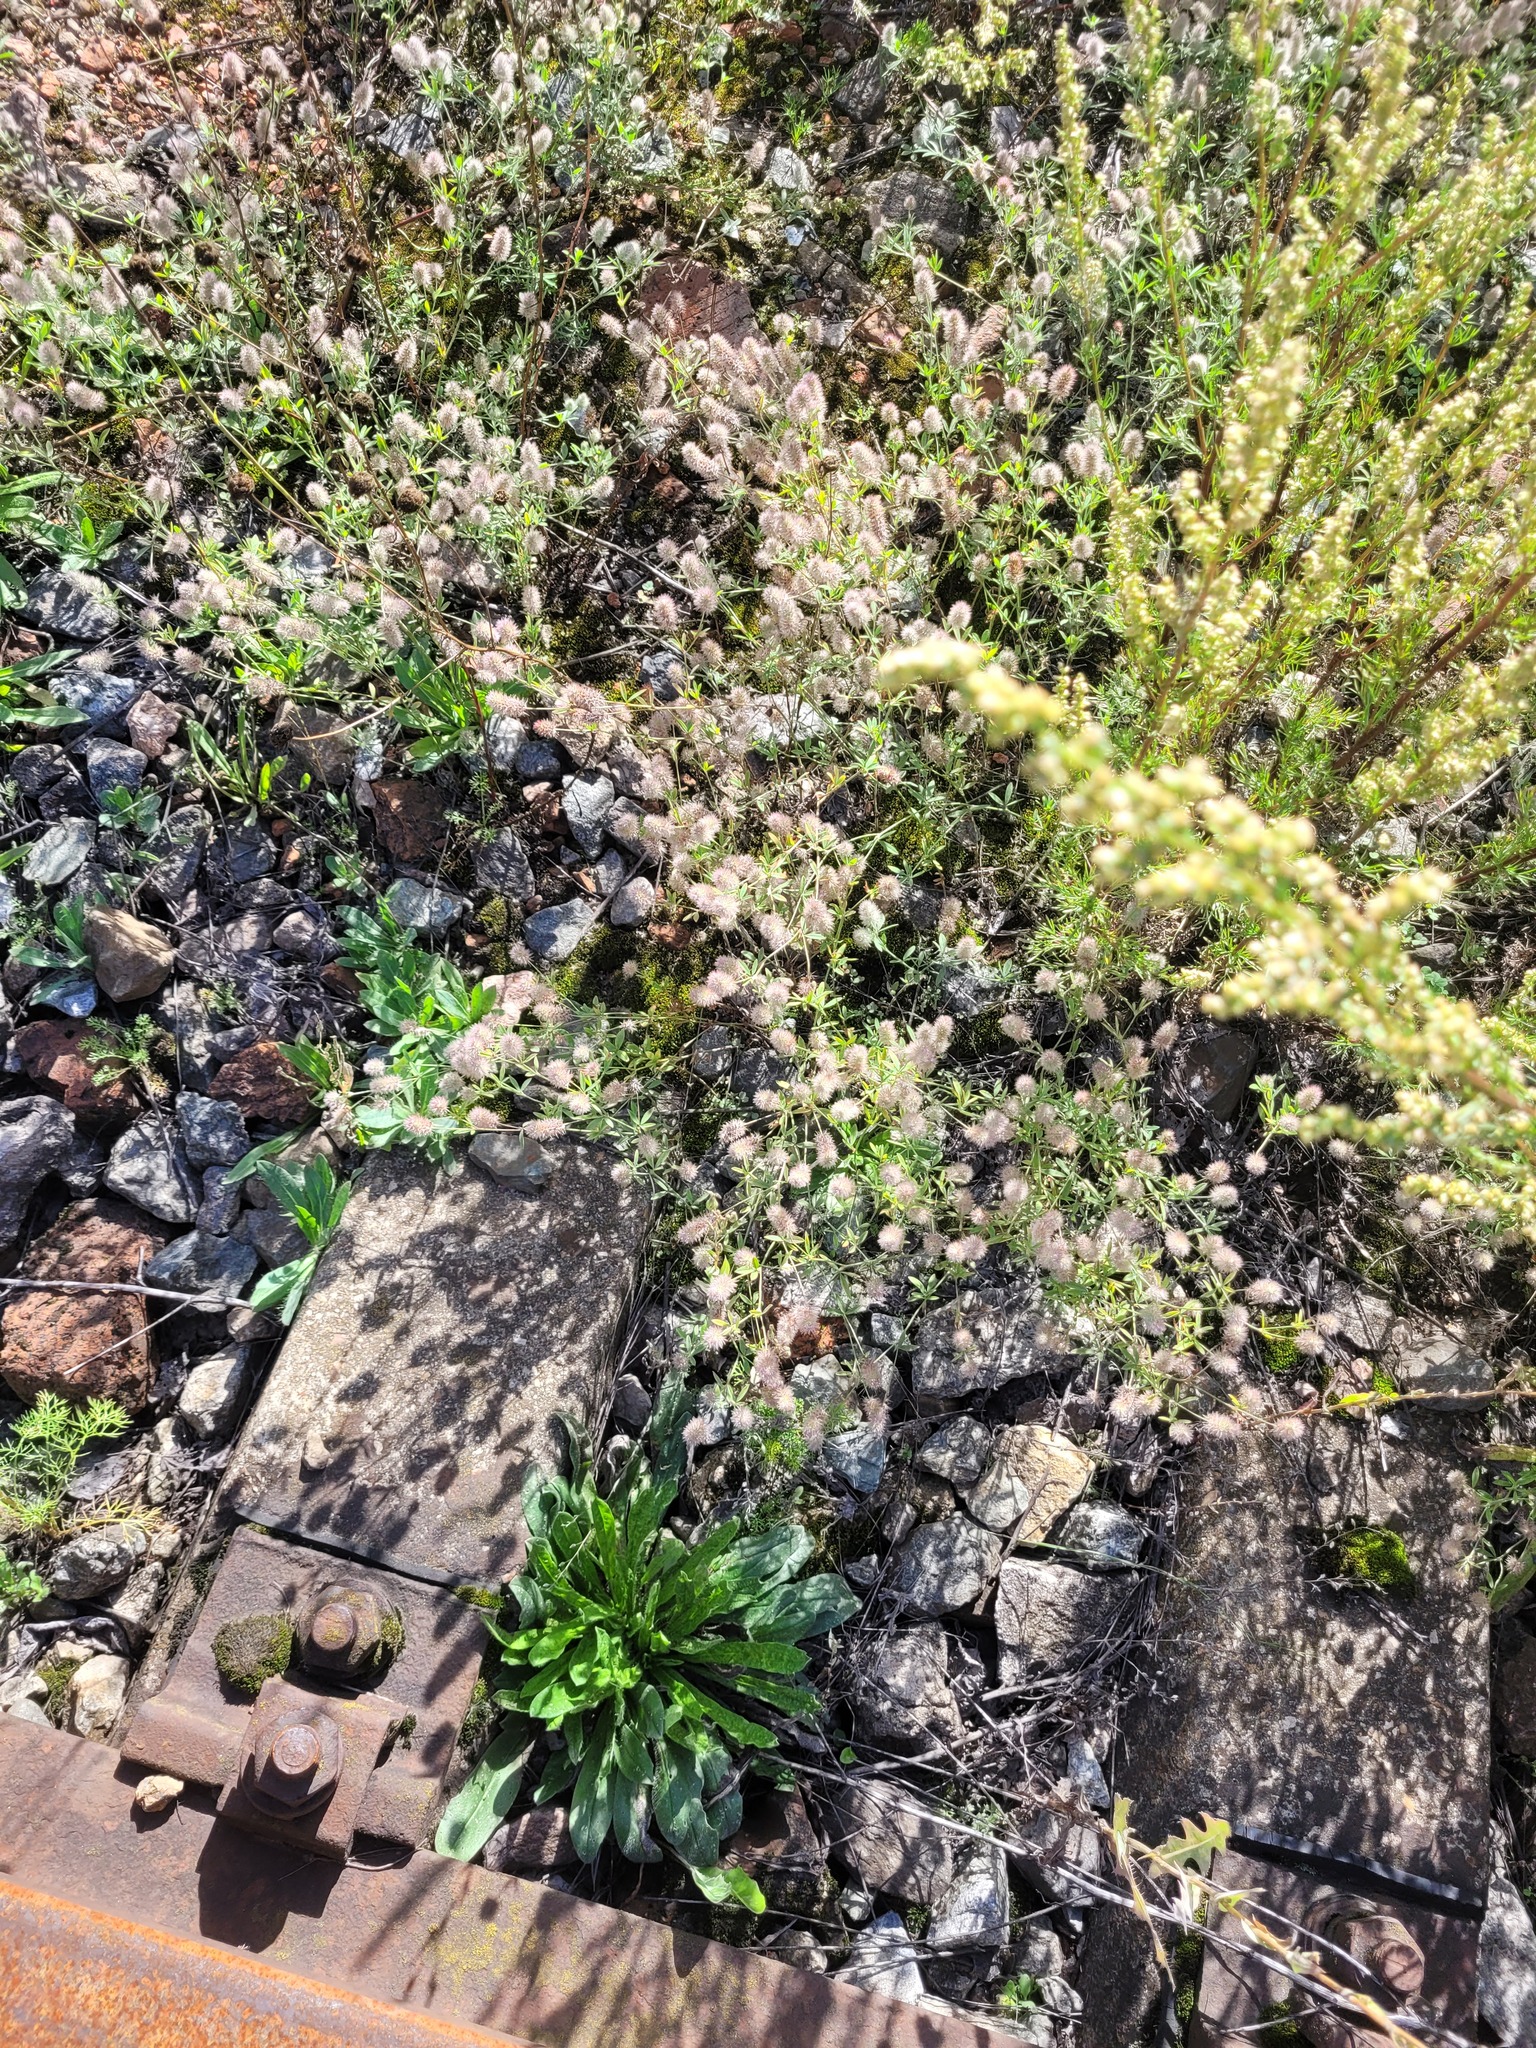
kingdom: Plantae
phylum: Tracheophyta
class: Magnoliopsida
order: Fabales
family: Fabaceae
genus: Trifolium
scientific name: Trifolium arvense
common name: Hare's-foot clover
